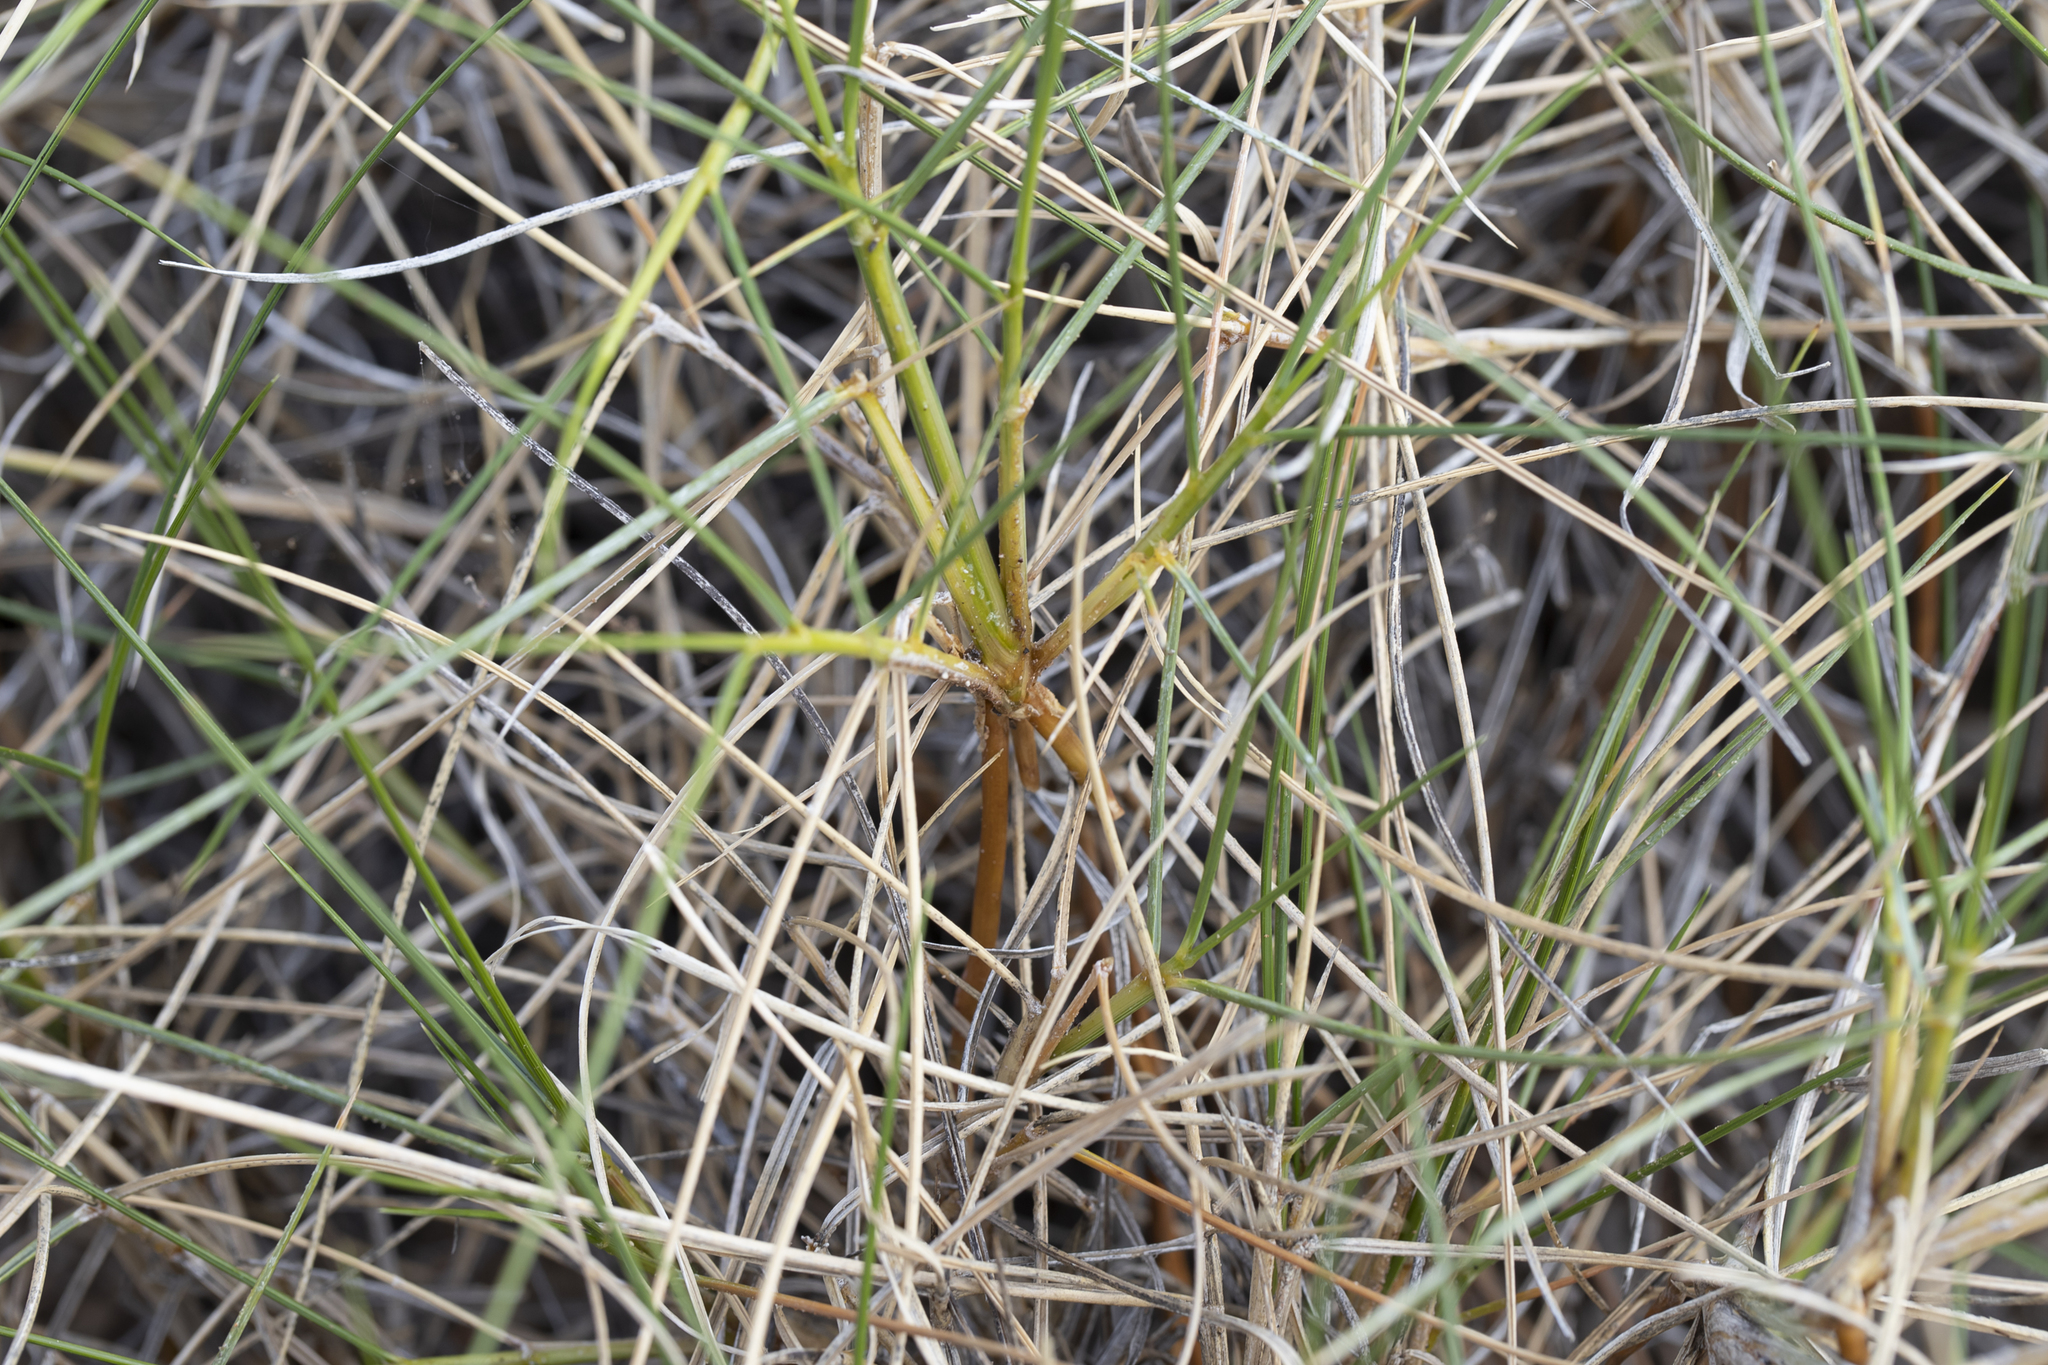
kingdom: Plantae
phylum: Tracheophyta
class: Liliopsida
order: Poales
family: Poaceae
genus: Triodia
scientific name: Triodia pungens
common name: Soft spinifex
